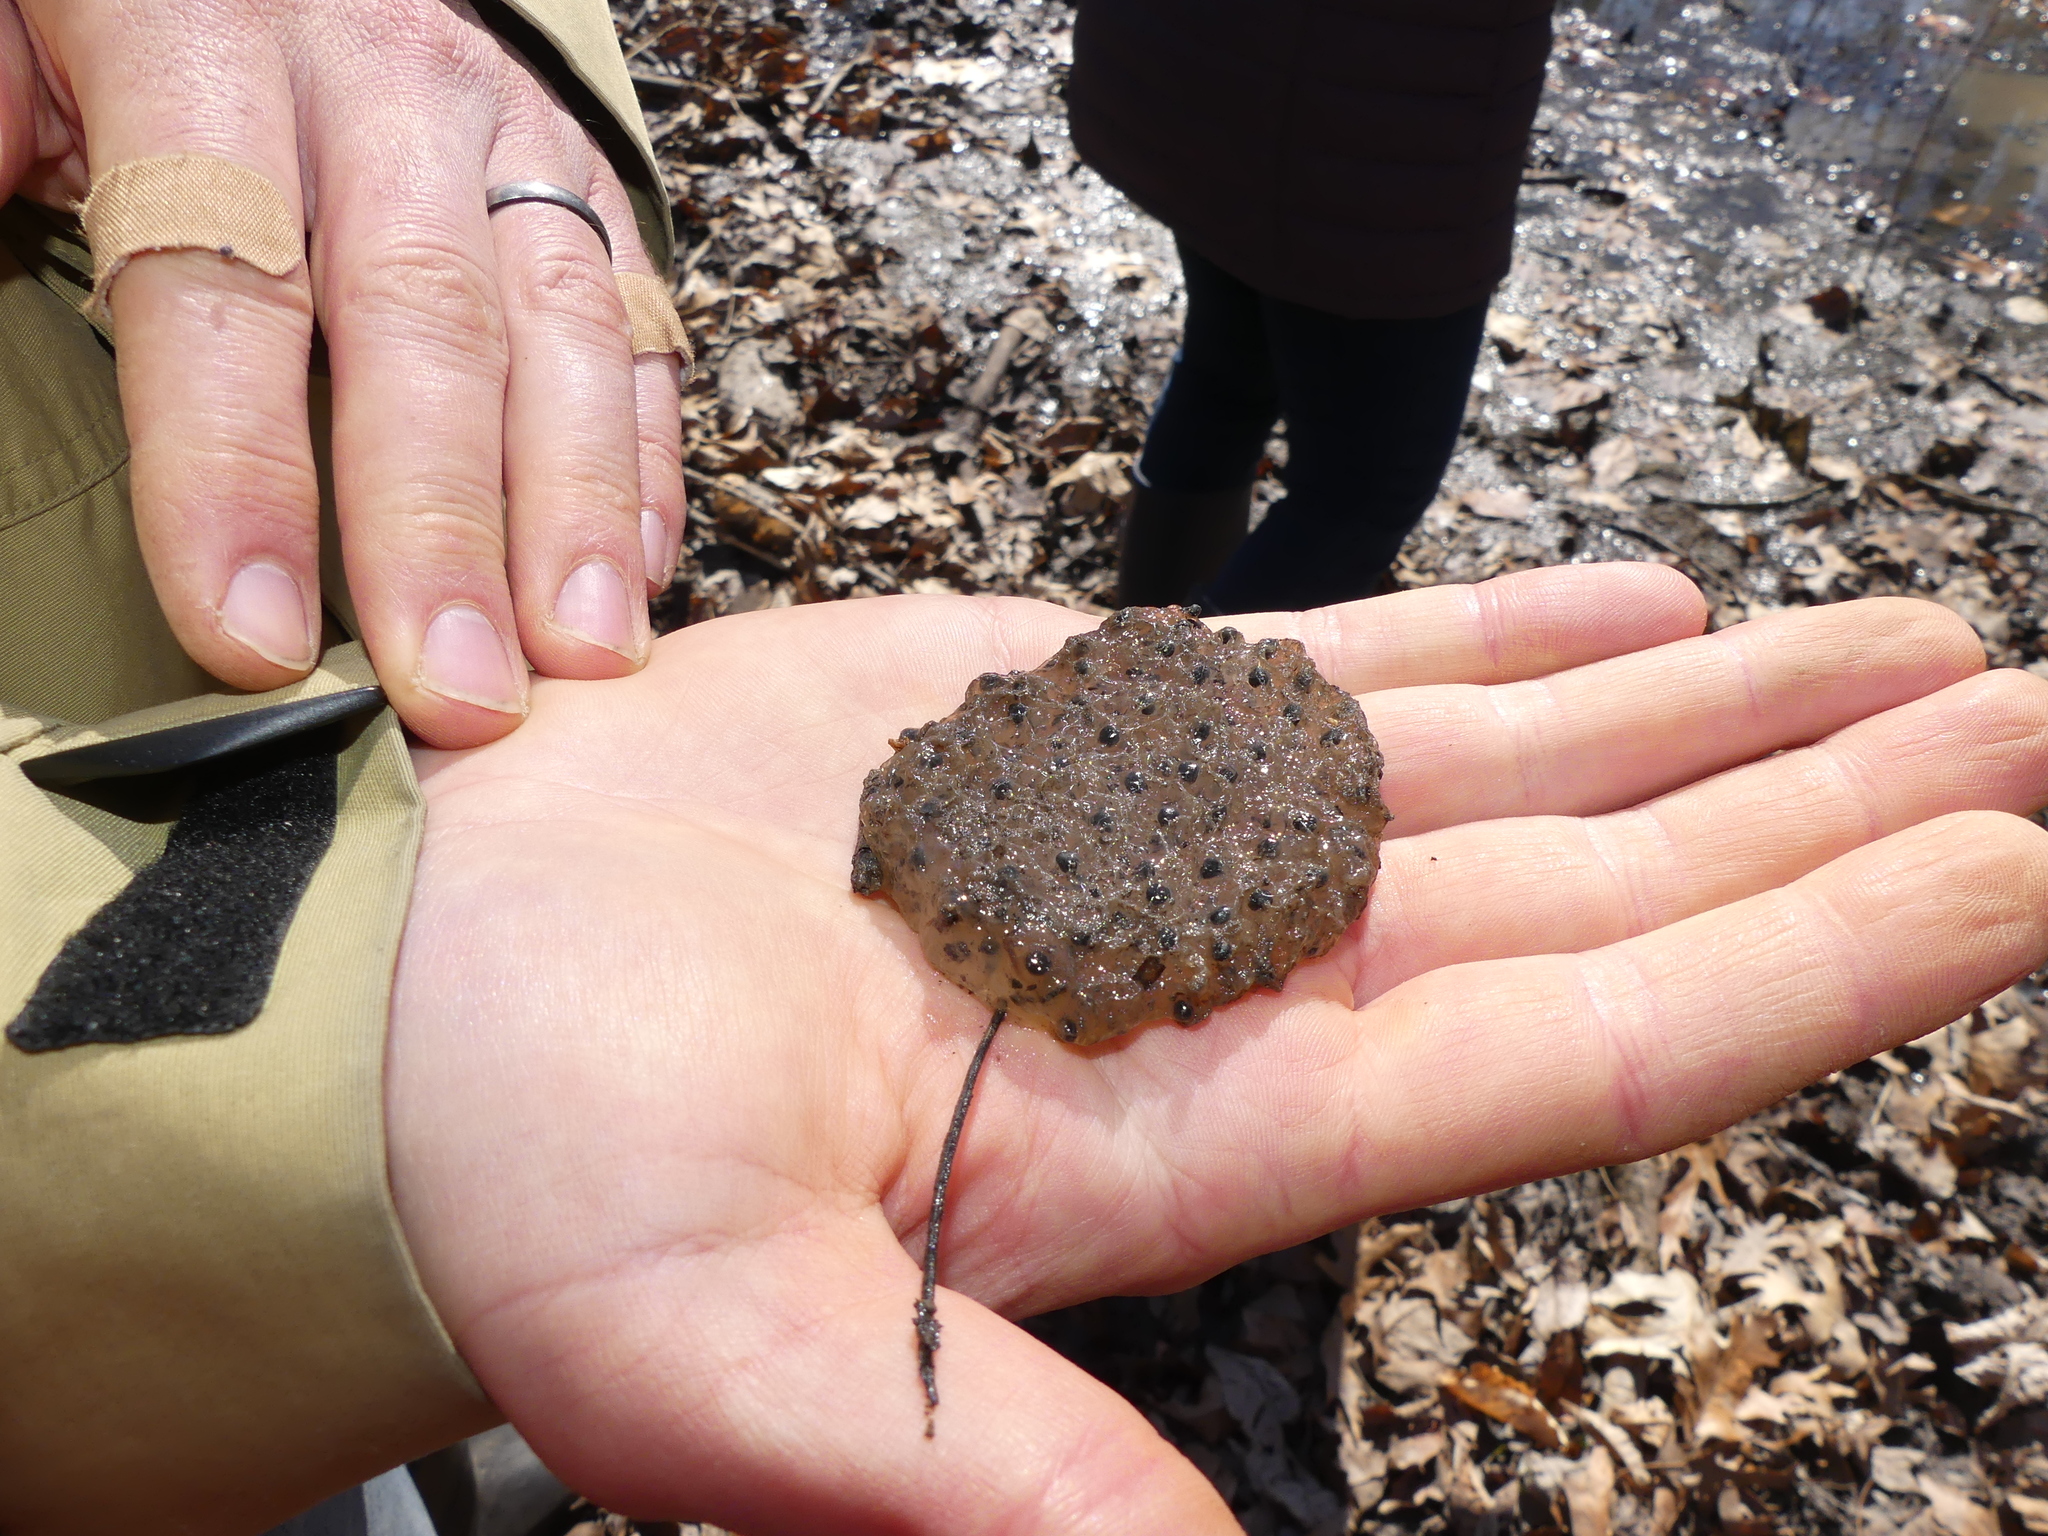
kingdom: Animalia
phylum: Chordata
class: Amphibia
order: Anura
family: Ranidae
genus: Lithobates
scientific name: Lithobates sylvaticus
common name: Wood frog
